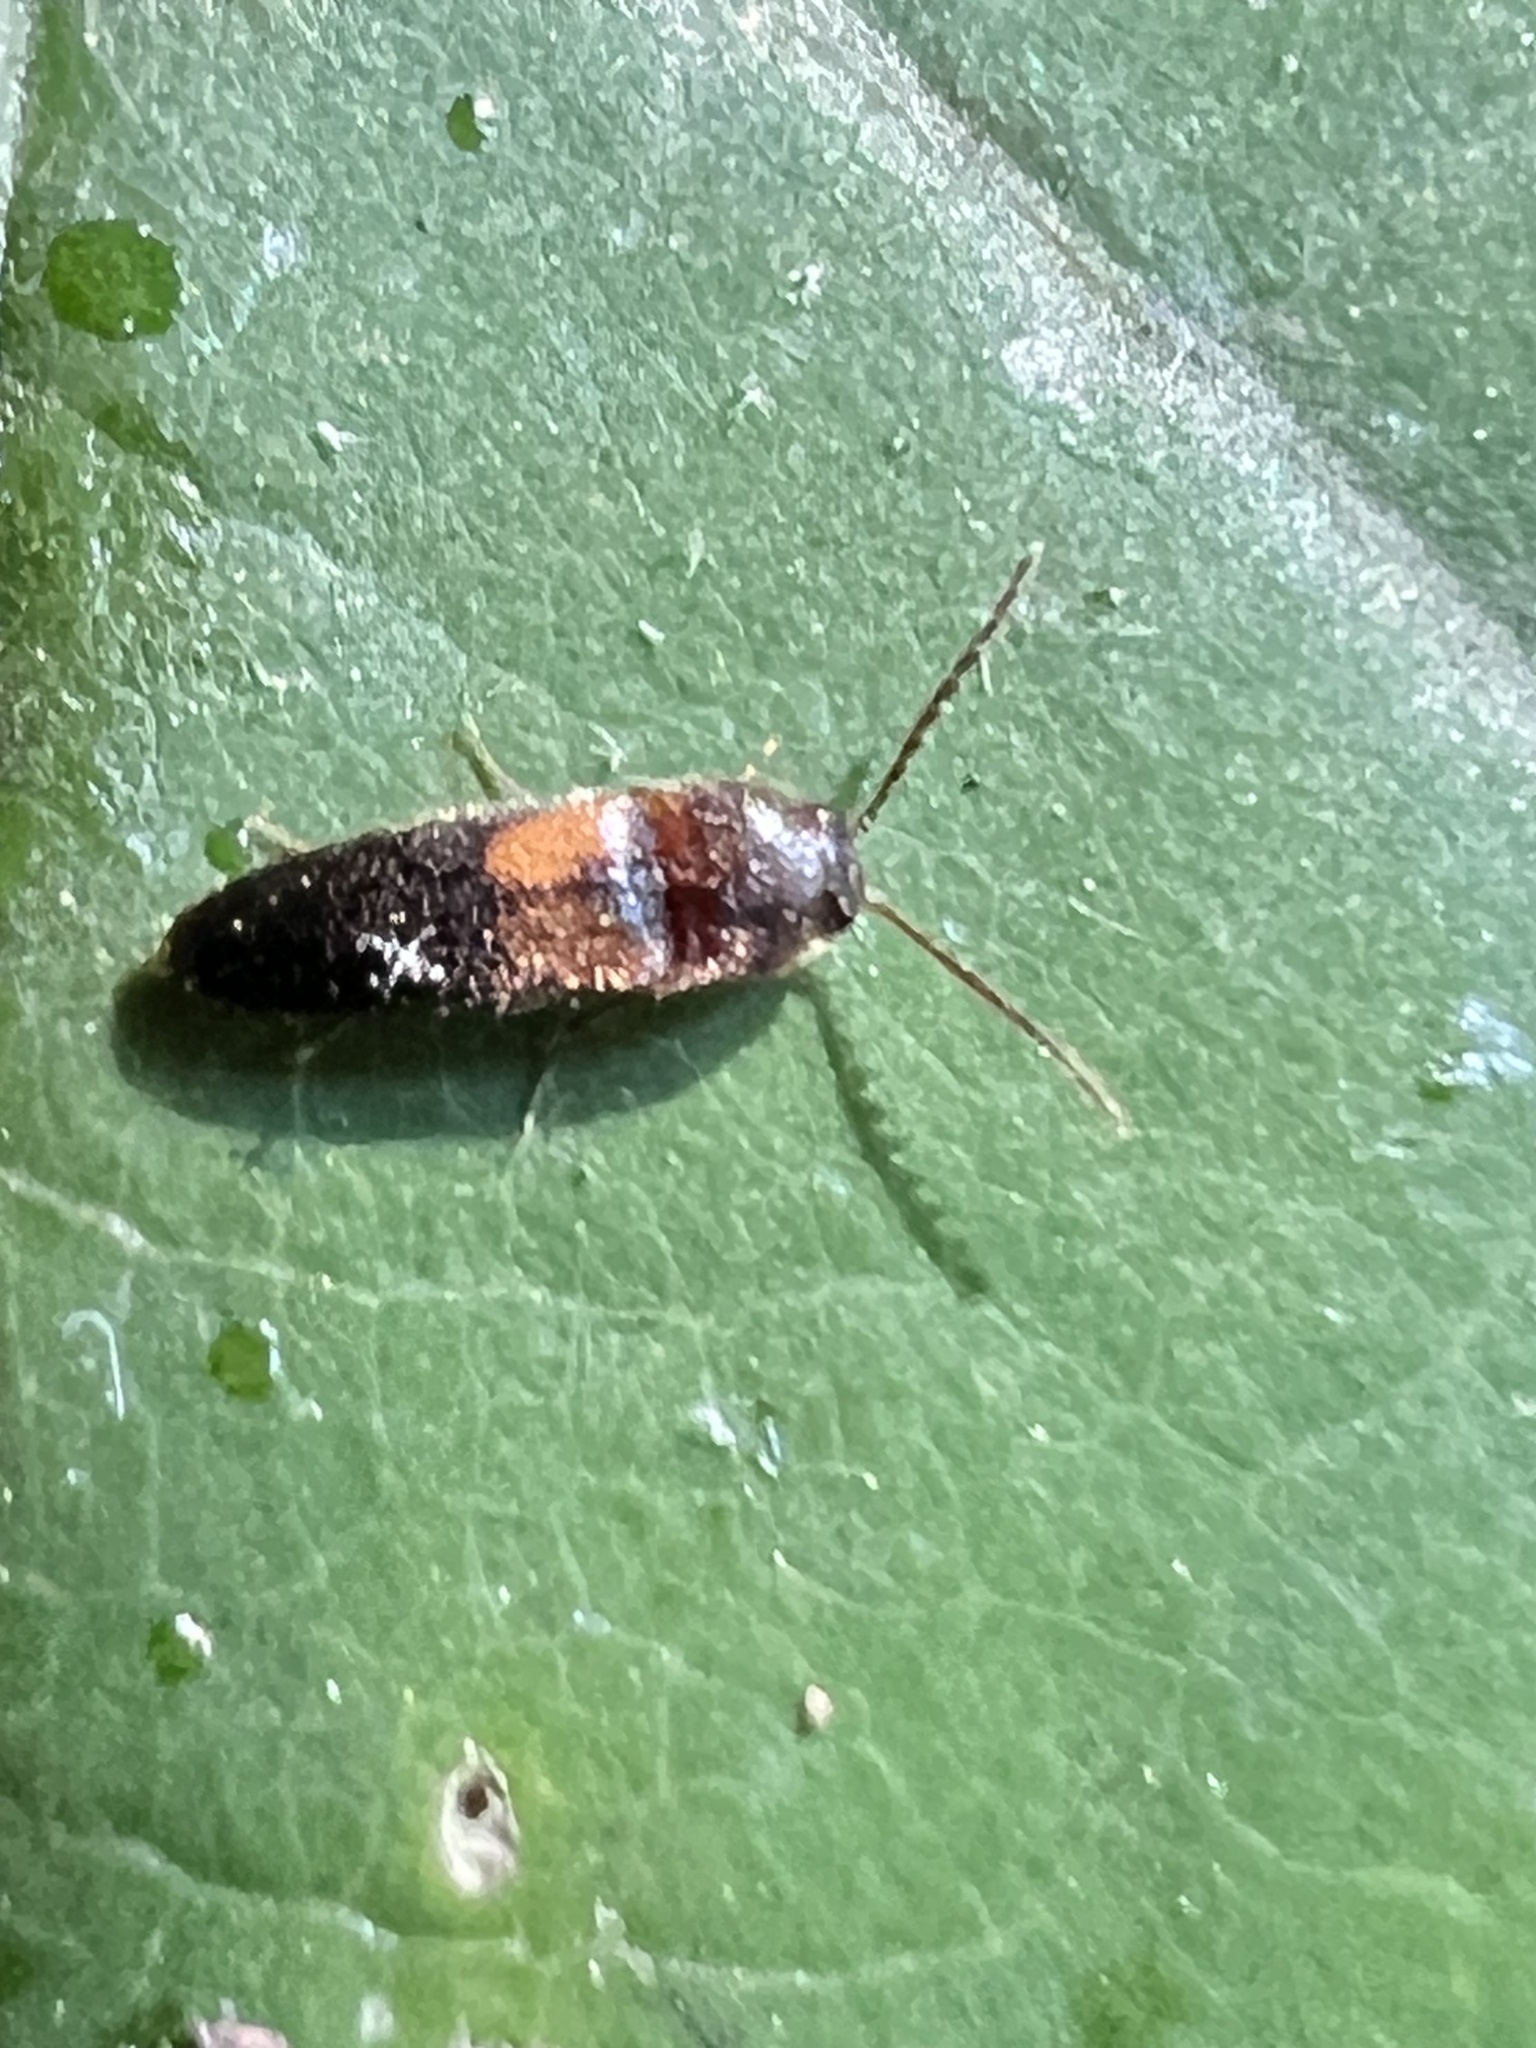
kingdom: Animalia
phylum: Arthropoda
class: Insecta
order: Coleoptera
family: Elateridae
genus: Ampedus
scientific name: Ampedus areolatus
